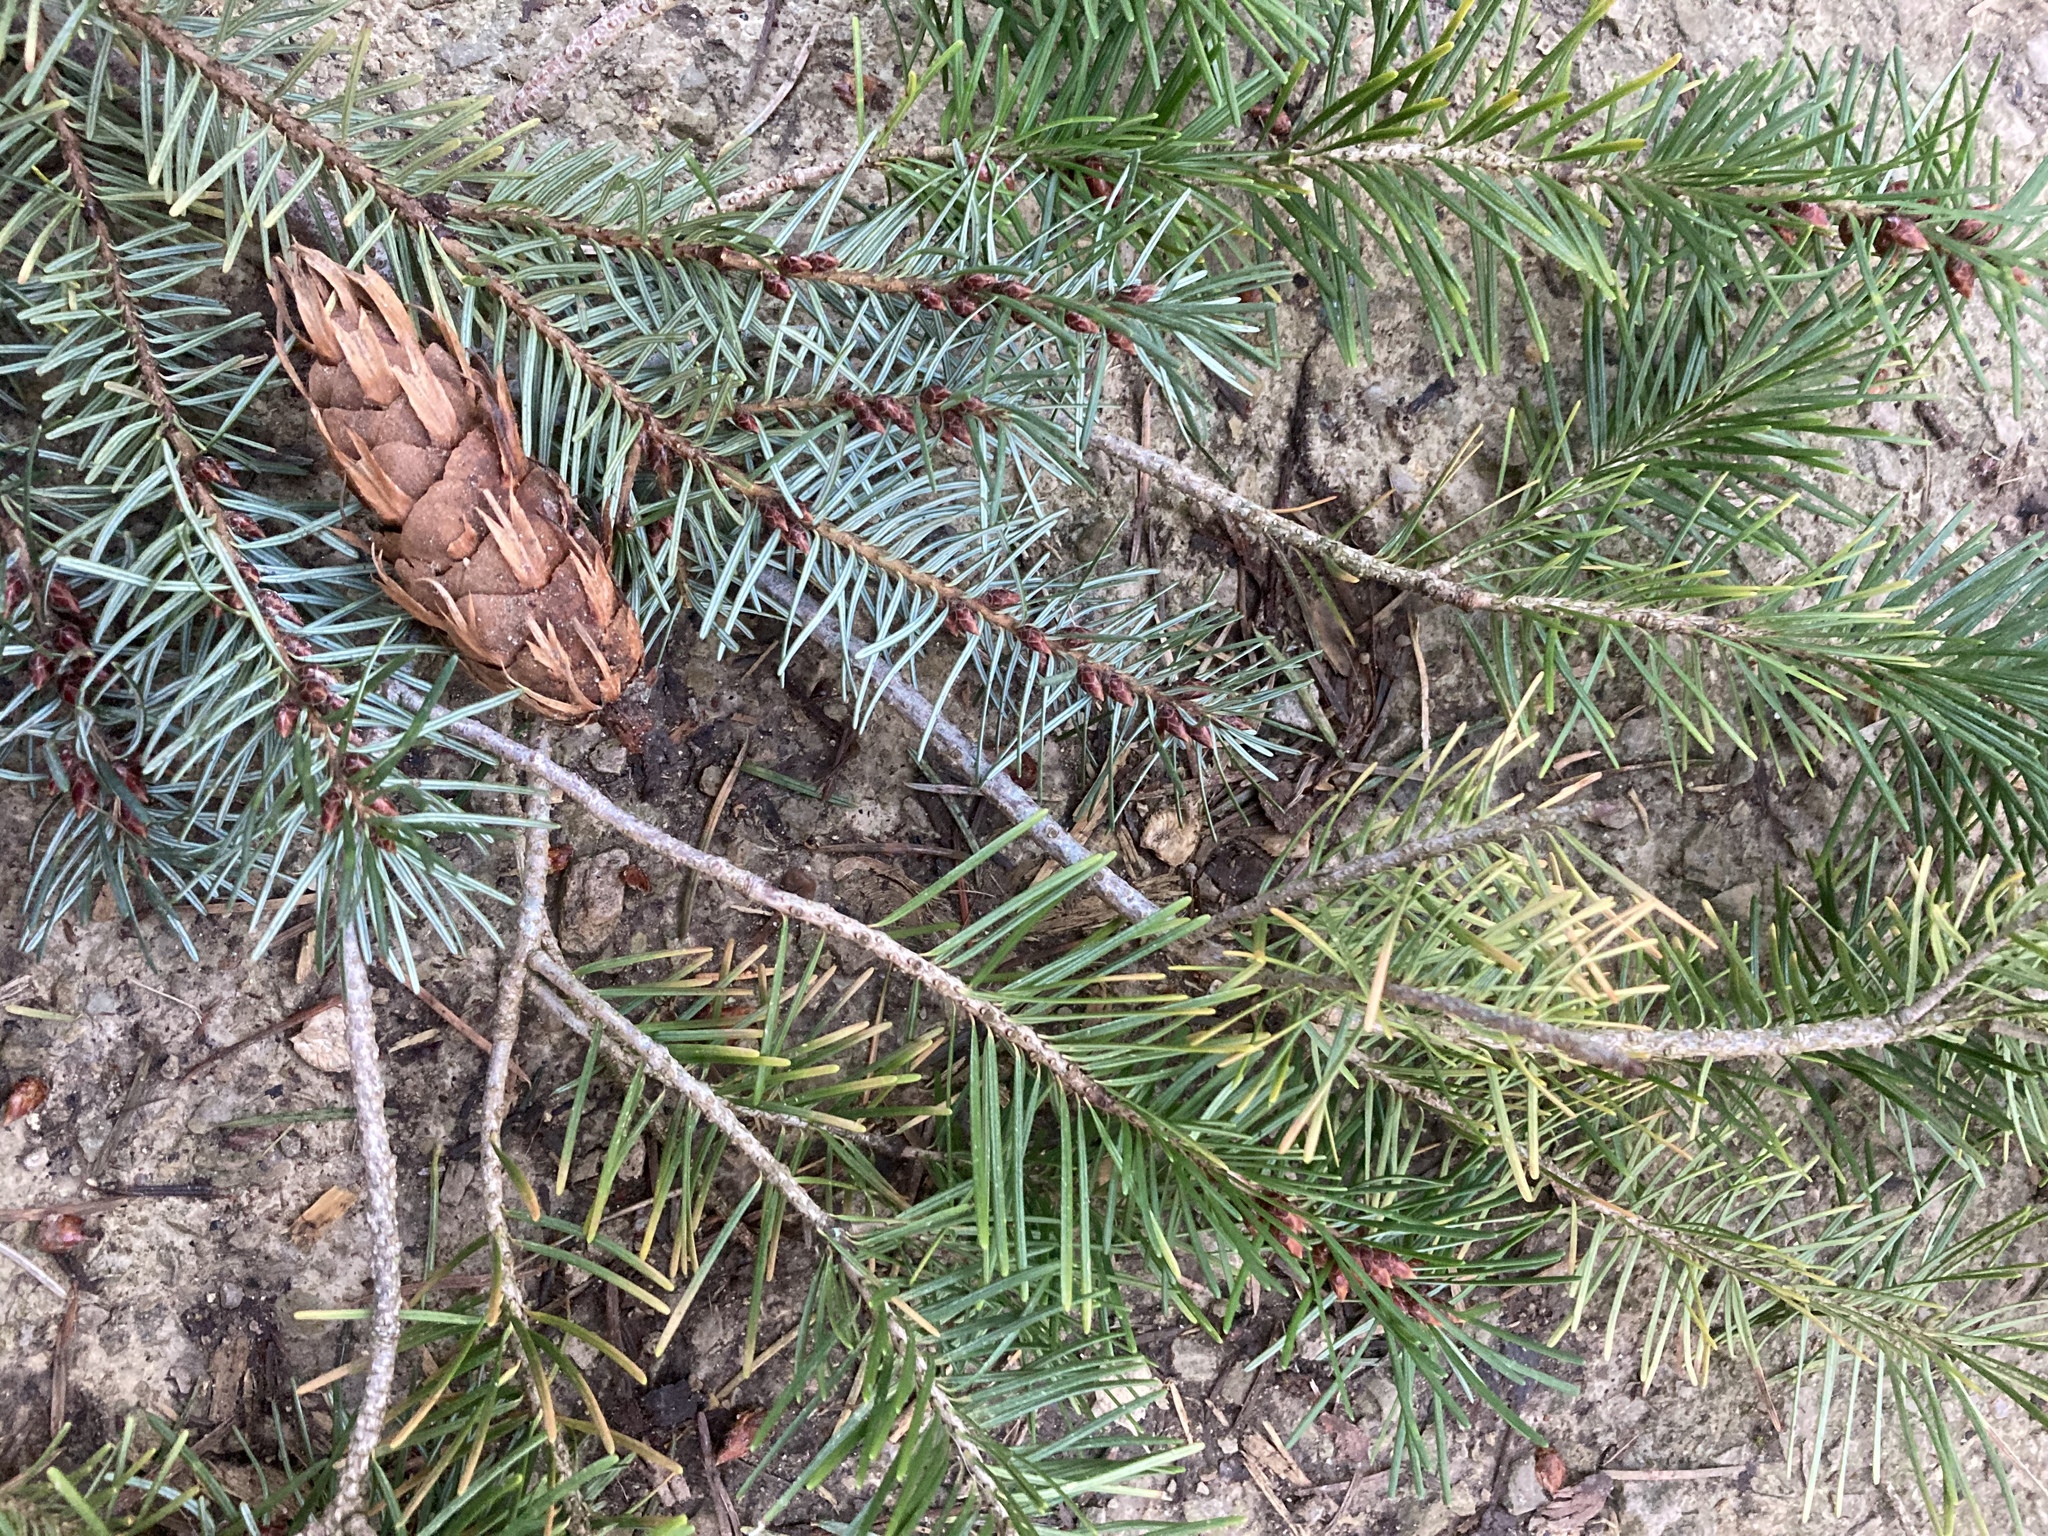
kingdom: Plantae
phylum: Tracheophyta
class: Pinopsida
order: Pinales
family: Pinaceae
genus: Pseudotsuga
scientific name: Pseudotsuga menziesii
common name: Douglas fir
